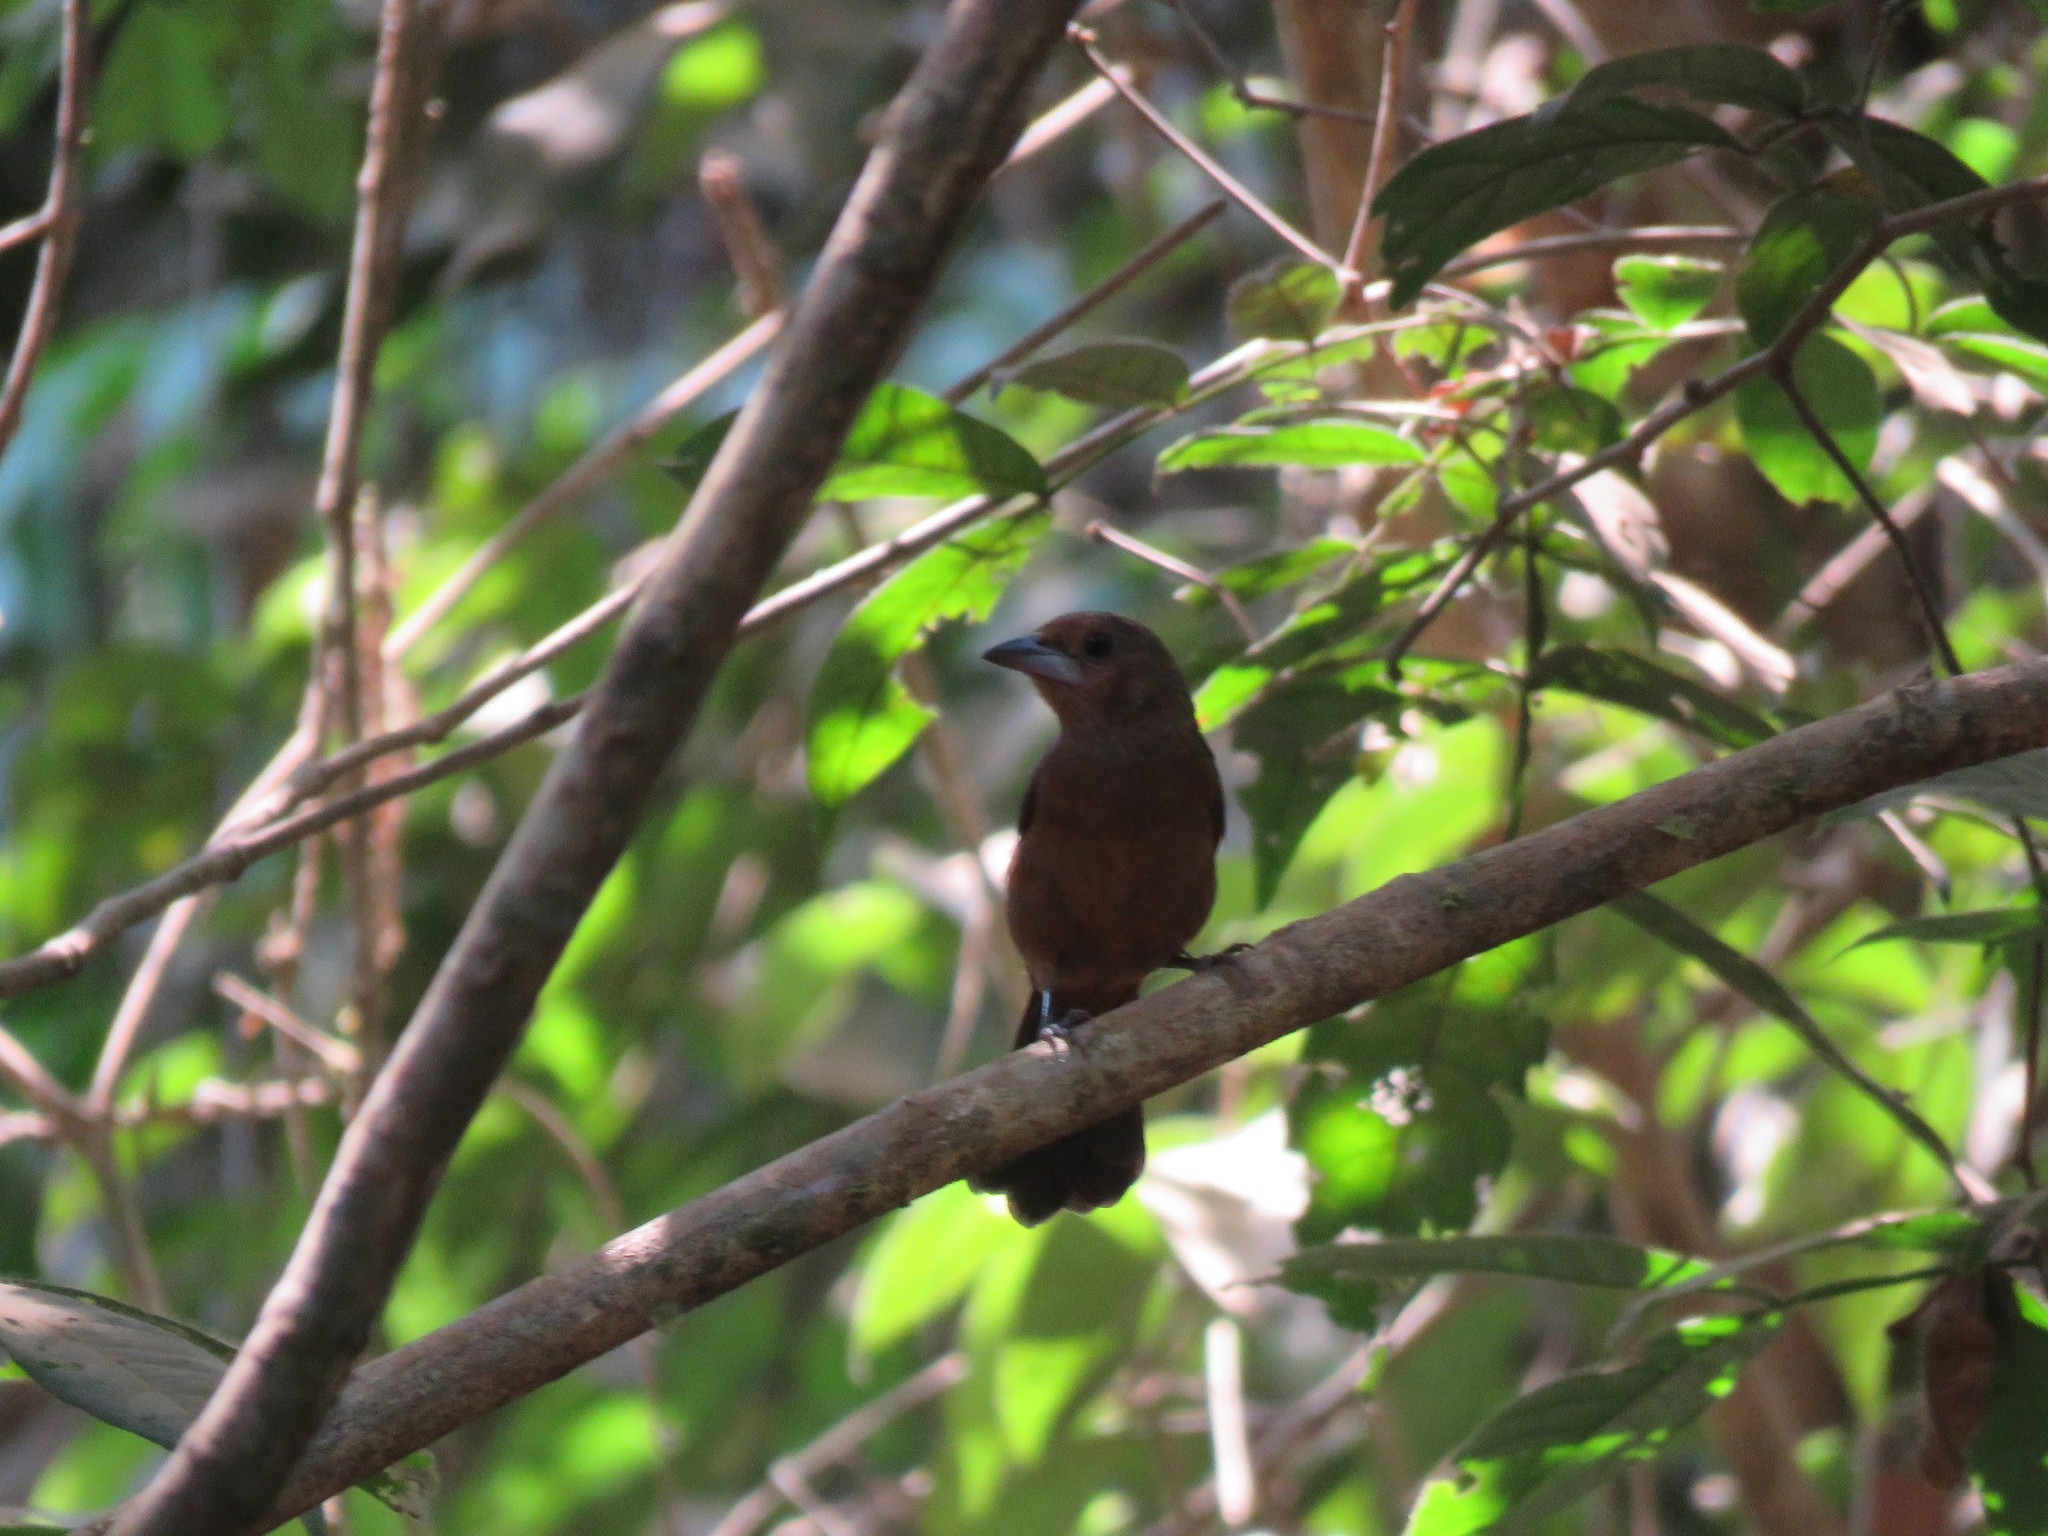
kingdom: Animalia
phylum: Chordata
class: Aves
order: Passeriformes
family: Thraupidae
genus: Ramphocelus
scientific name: Ramphocelus carbo
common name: Silver-beaked tanager
